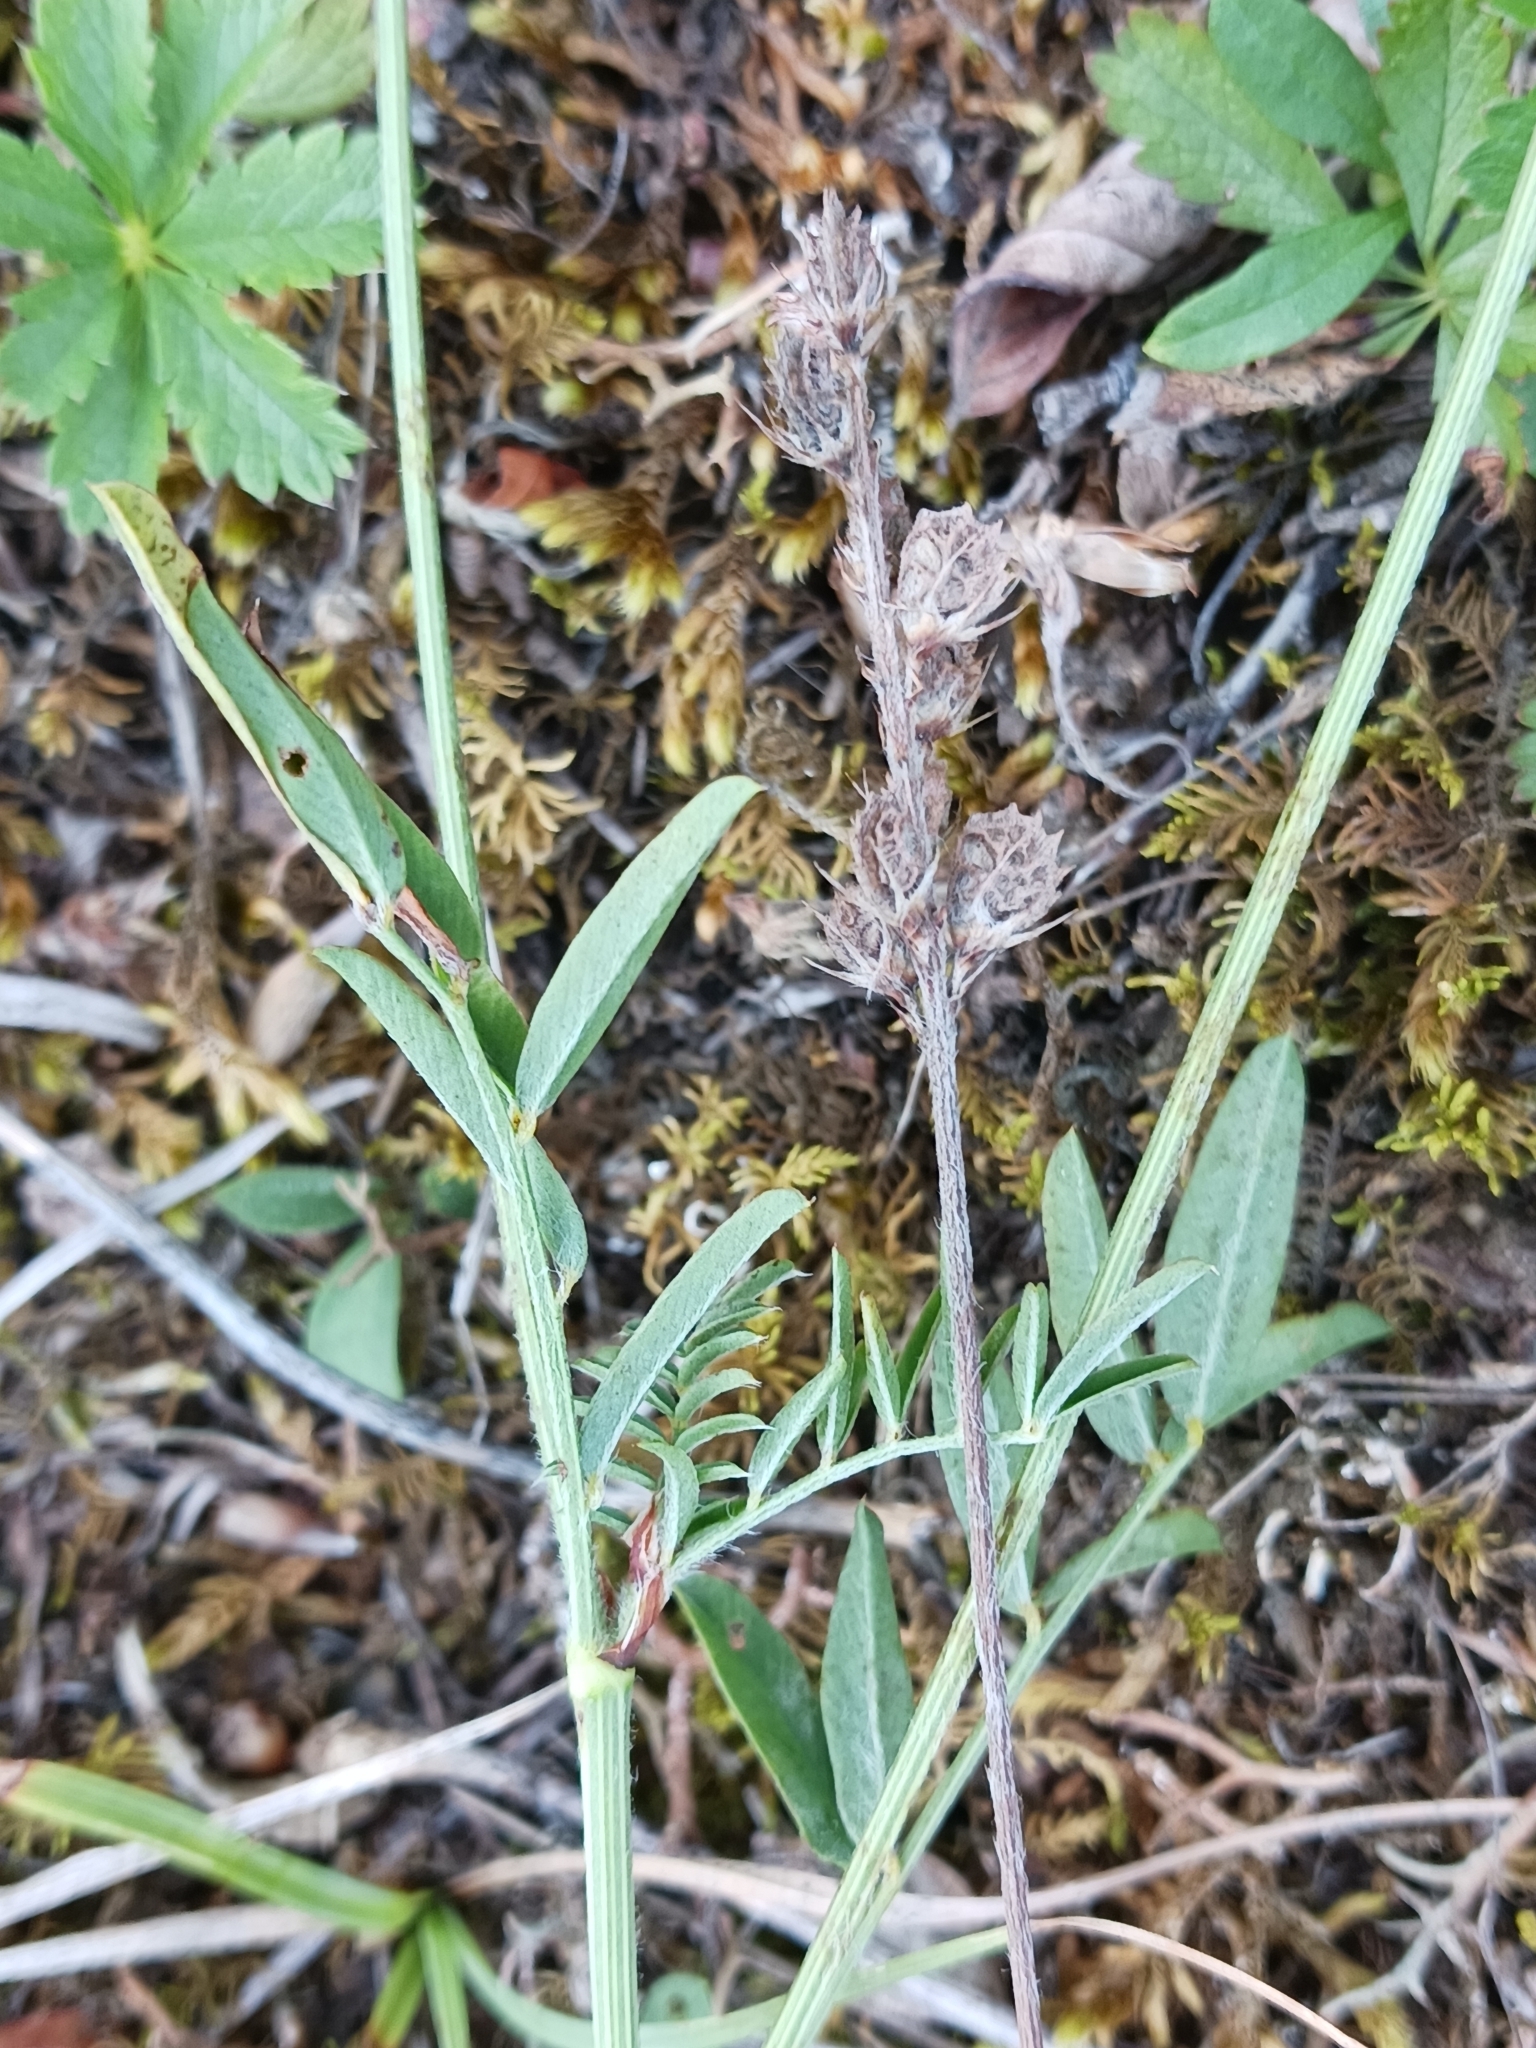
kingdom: Plantae
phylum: Tracheophyta
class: Magnoliopsida
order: Fabales
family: Fabaceae
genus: Onobrychis
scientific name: Onobrychis viciifolia
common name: Sainfoin
